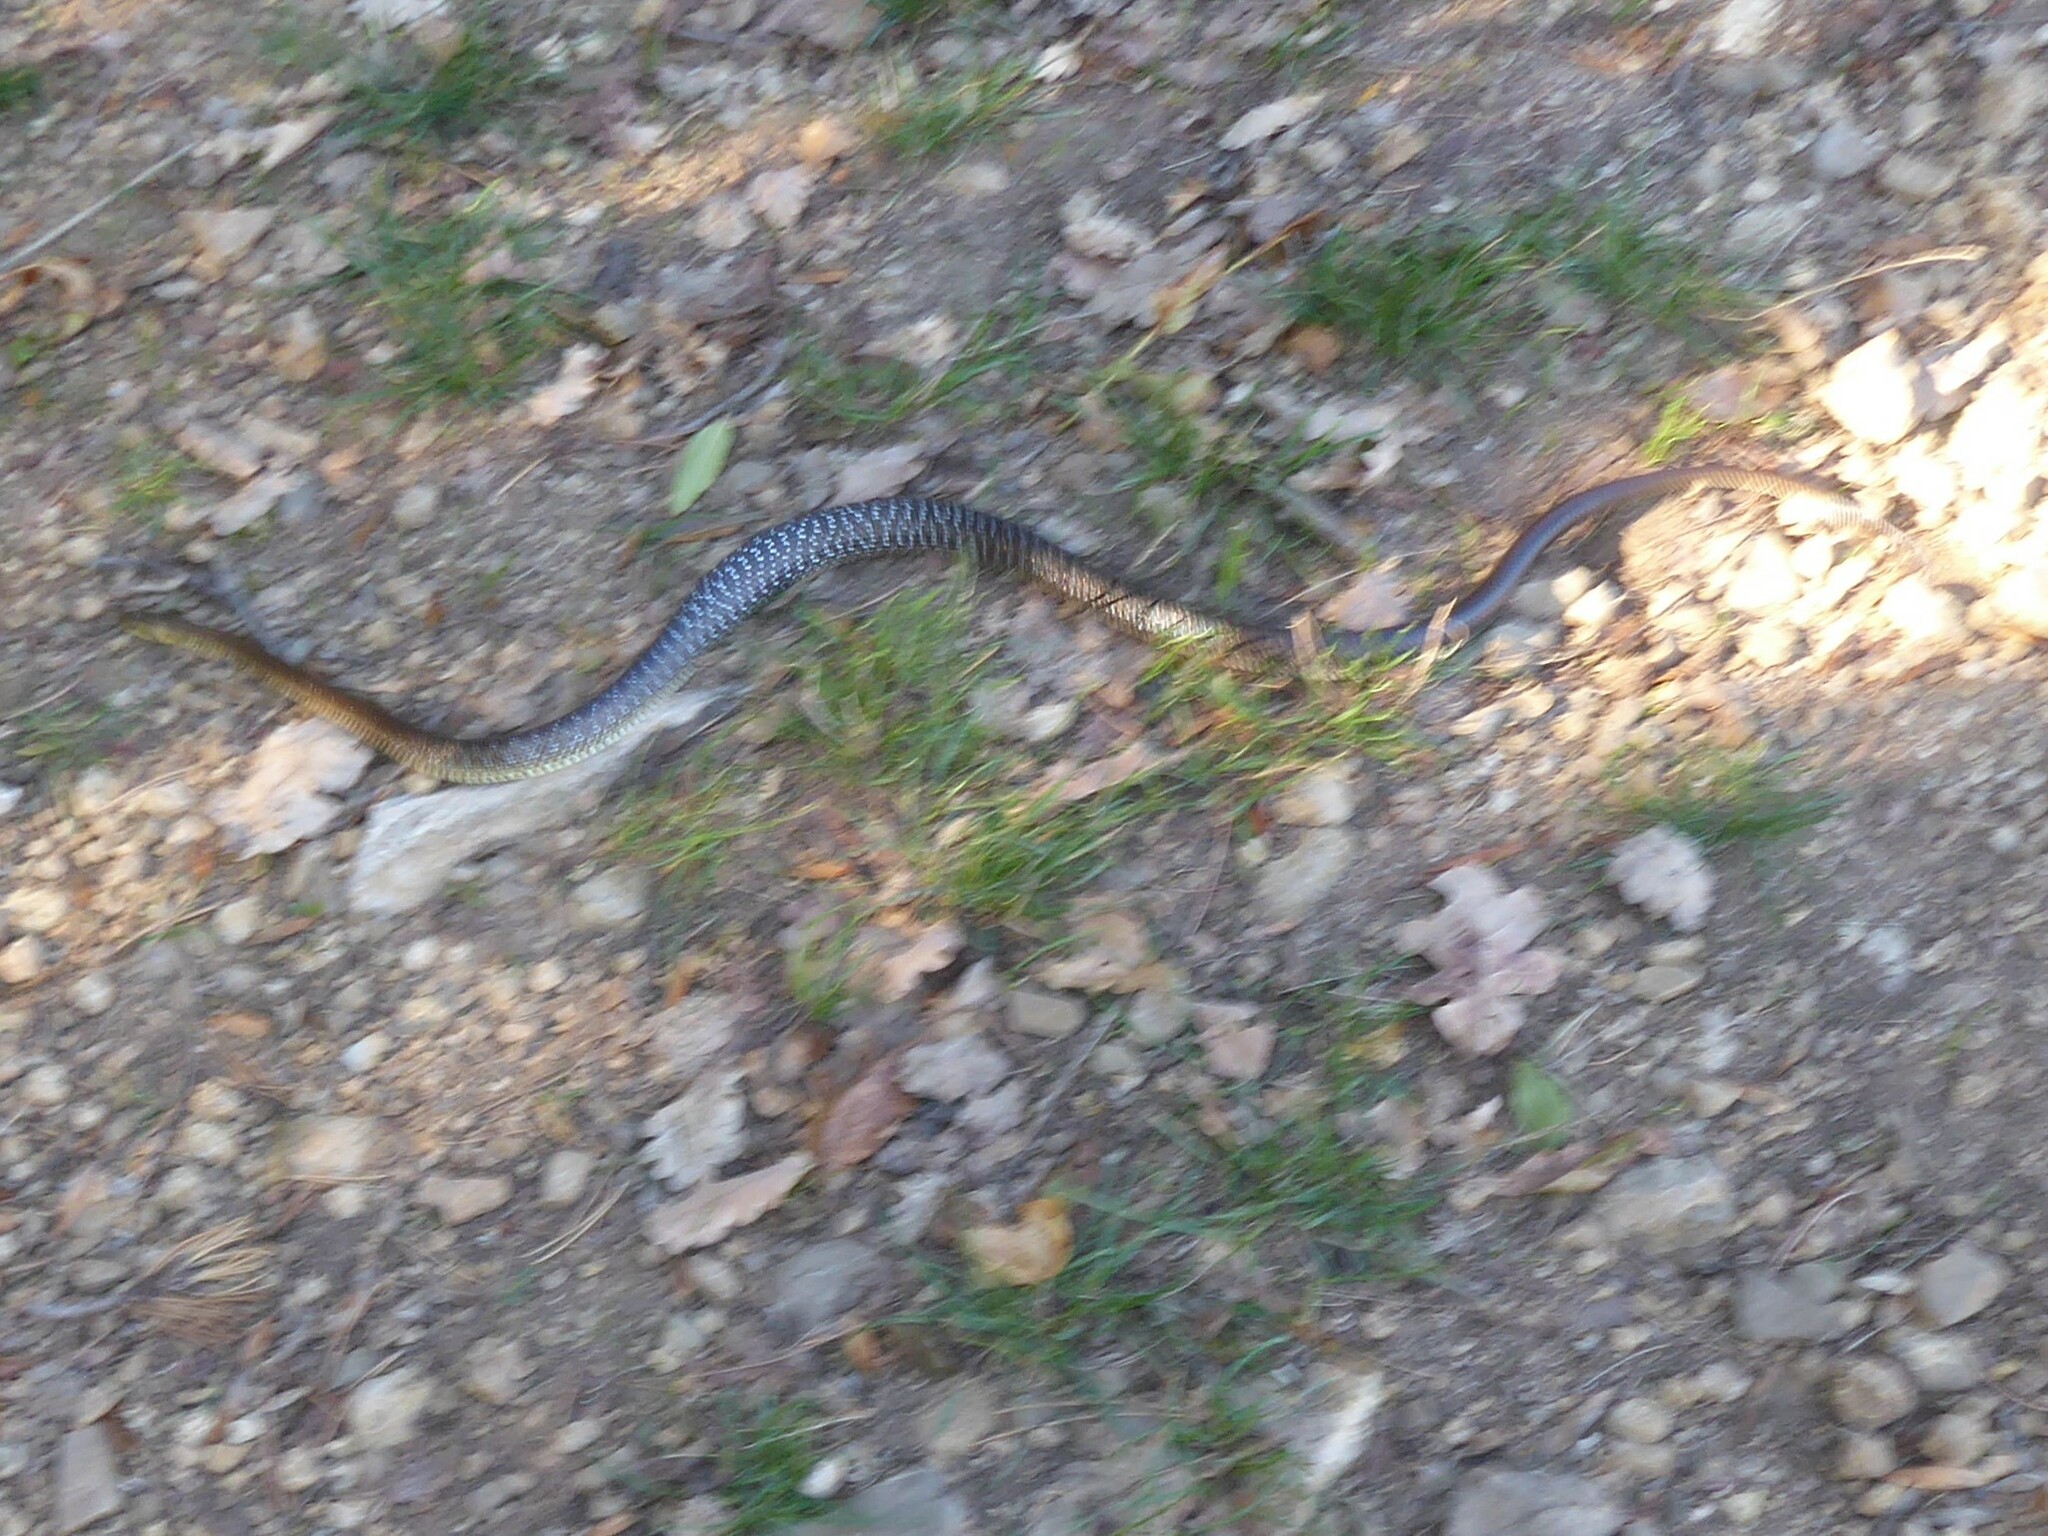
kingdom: Animalia
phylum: Chordata
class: Squamata
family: Colubridae
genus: Zamenis
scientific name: Zamenis longissimus
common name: Aesculapean snake
